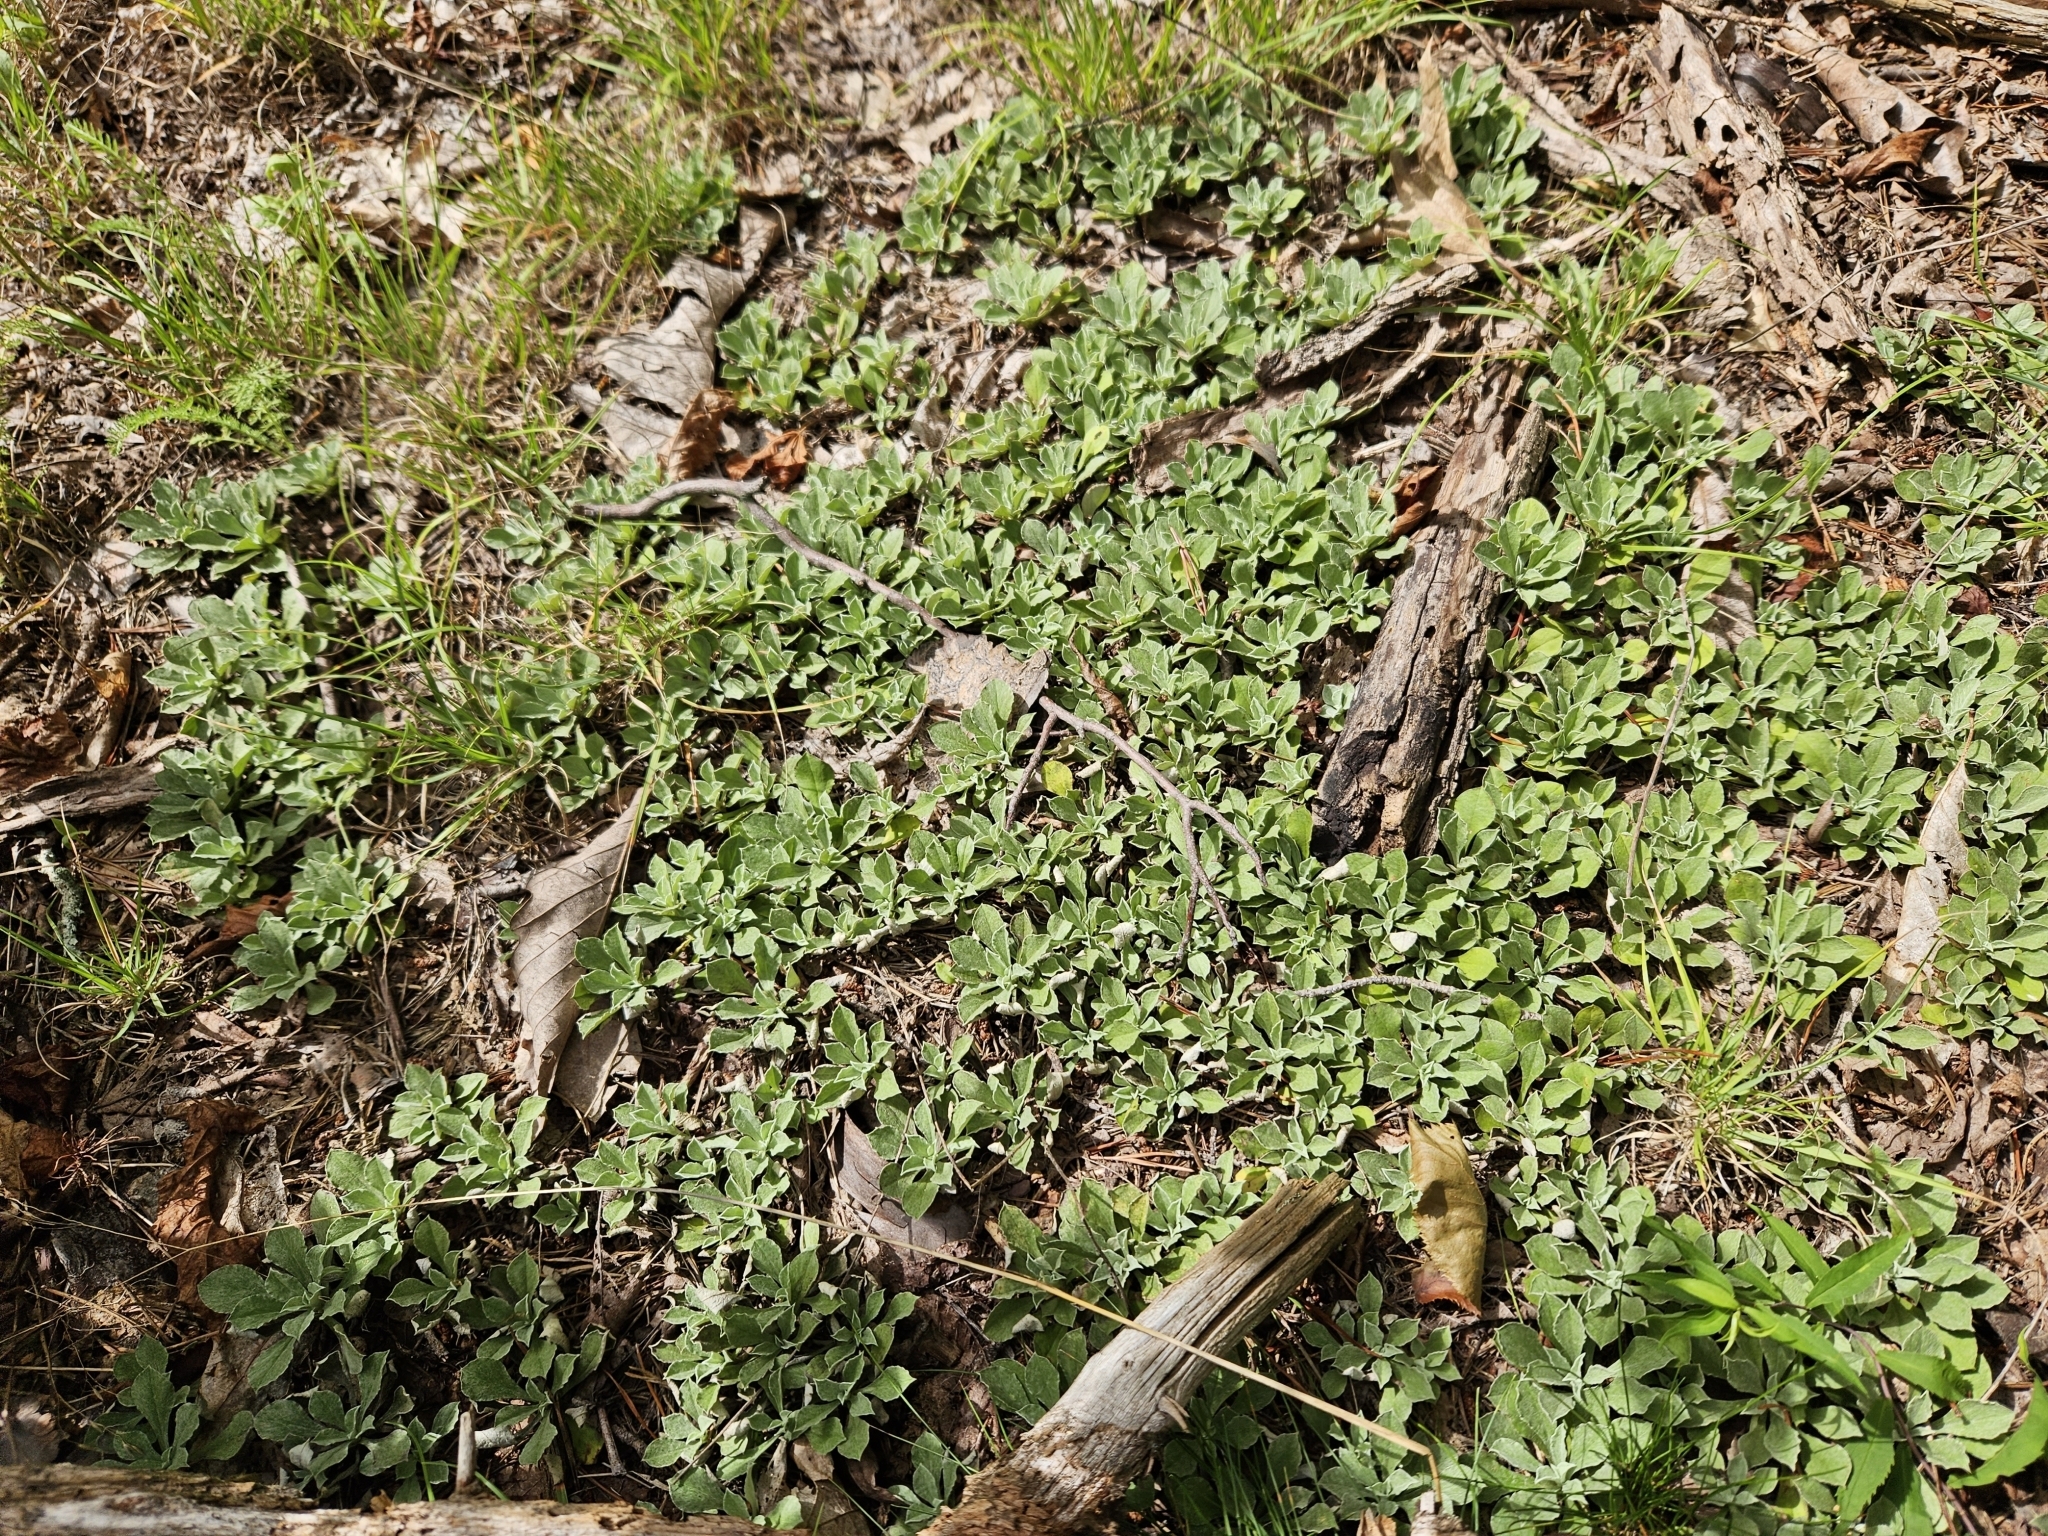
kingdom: Plantae
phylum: Tracheophyta
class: Magnoliopsida
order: Asterales
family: Asteraceae
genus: Antennaria
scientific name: Antennaria howellii
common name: Howell's pussytoes
